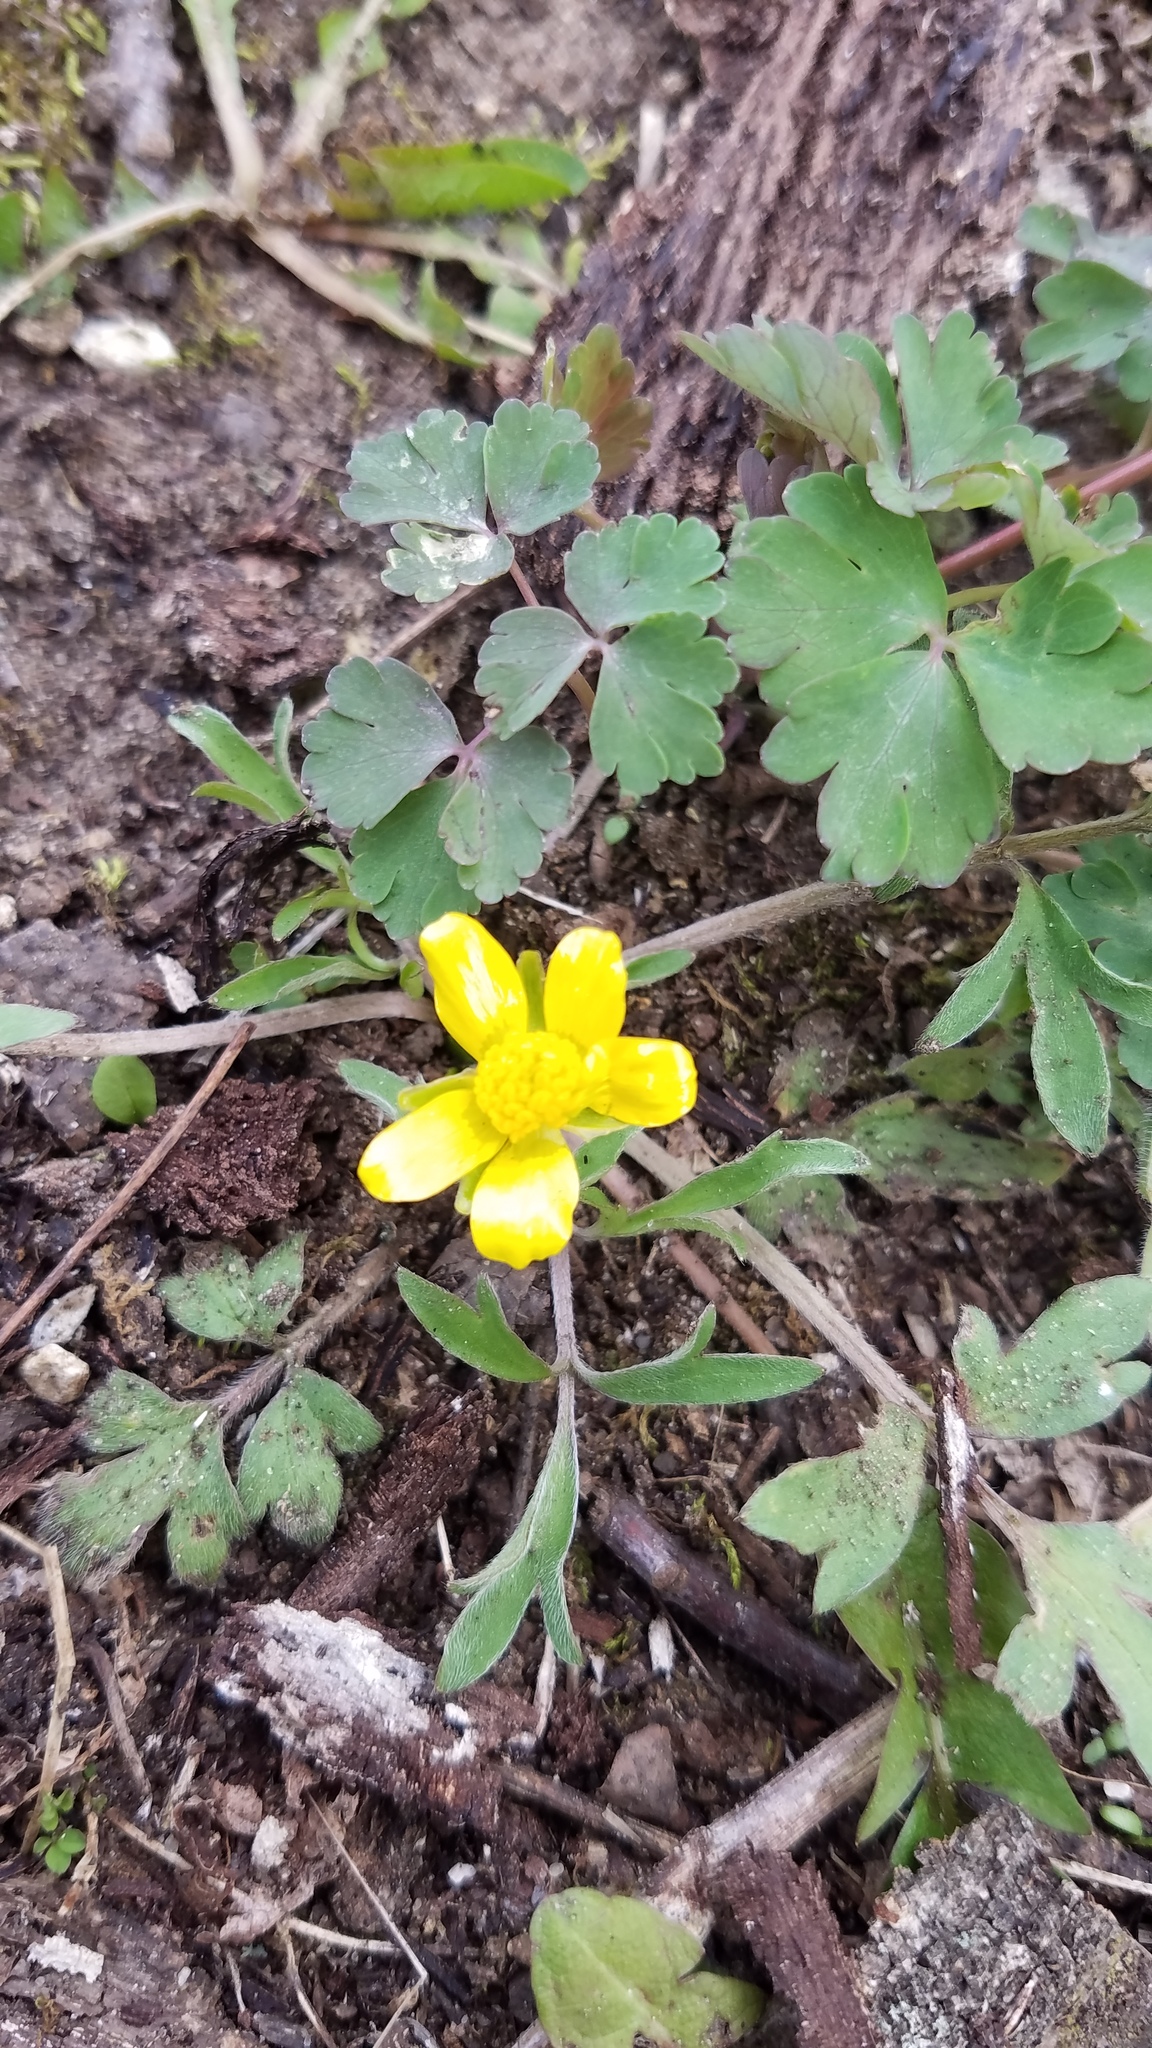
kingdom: Plantae
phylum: Tracheophyta
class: Magnoliopsida
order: Ranunculales
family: Ranunculaceae
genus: Ranunculus
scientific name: Ranunculus fascicularis
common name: Early buttercup
